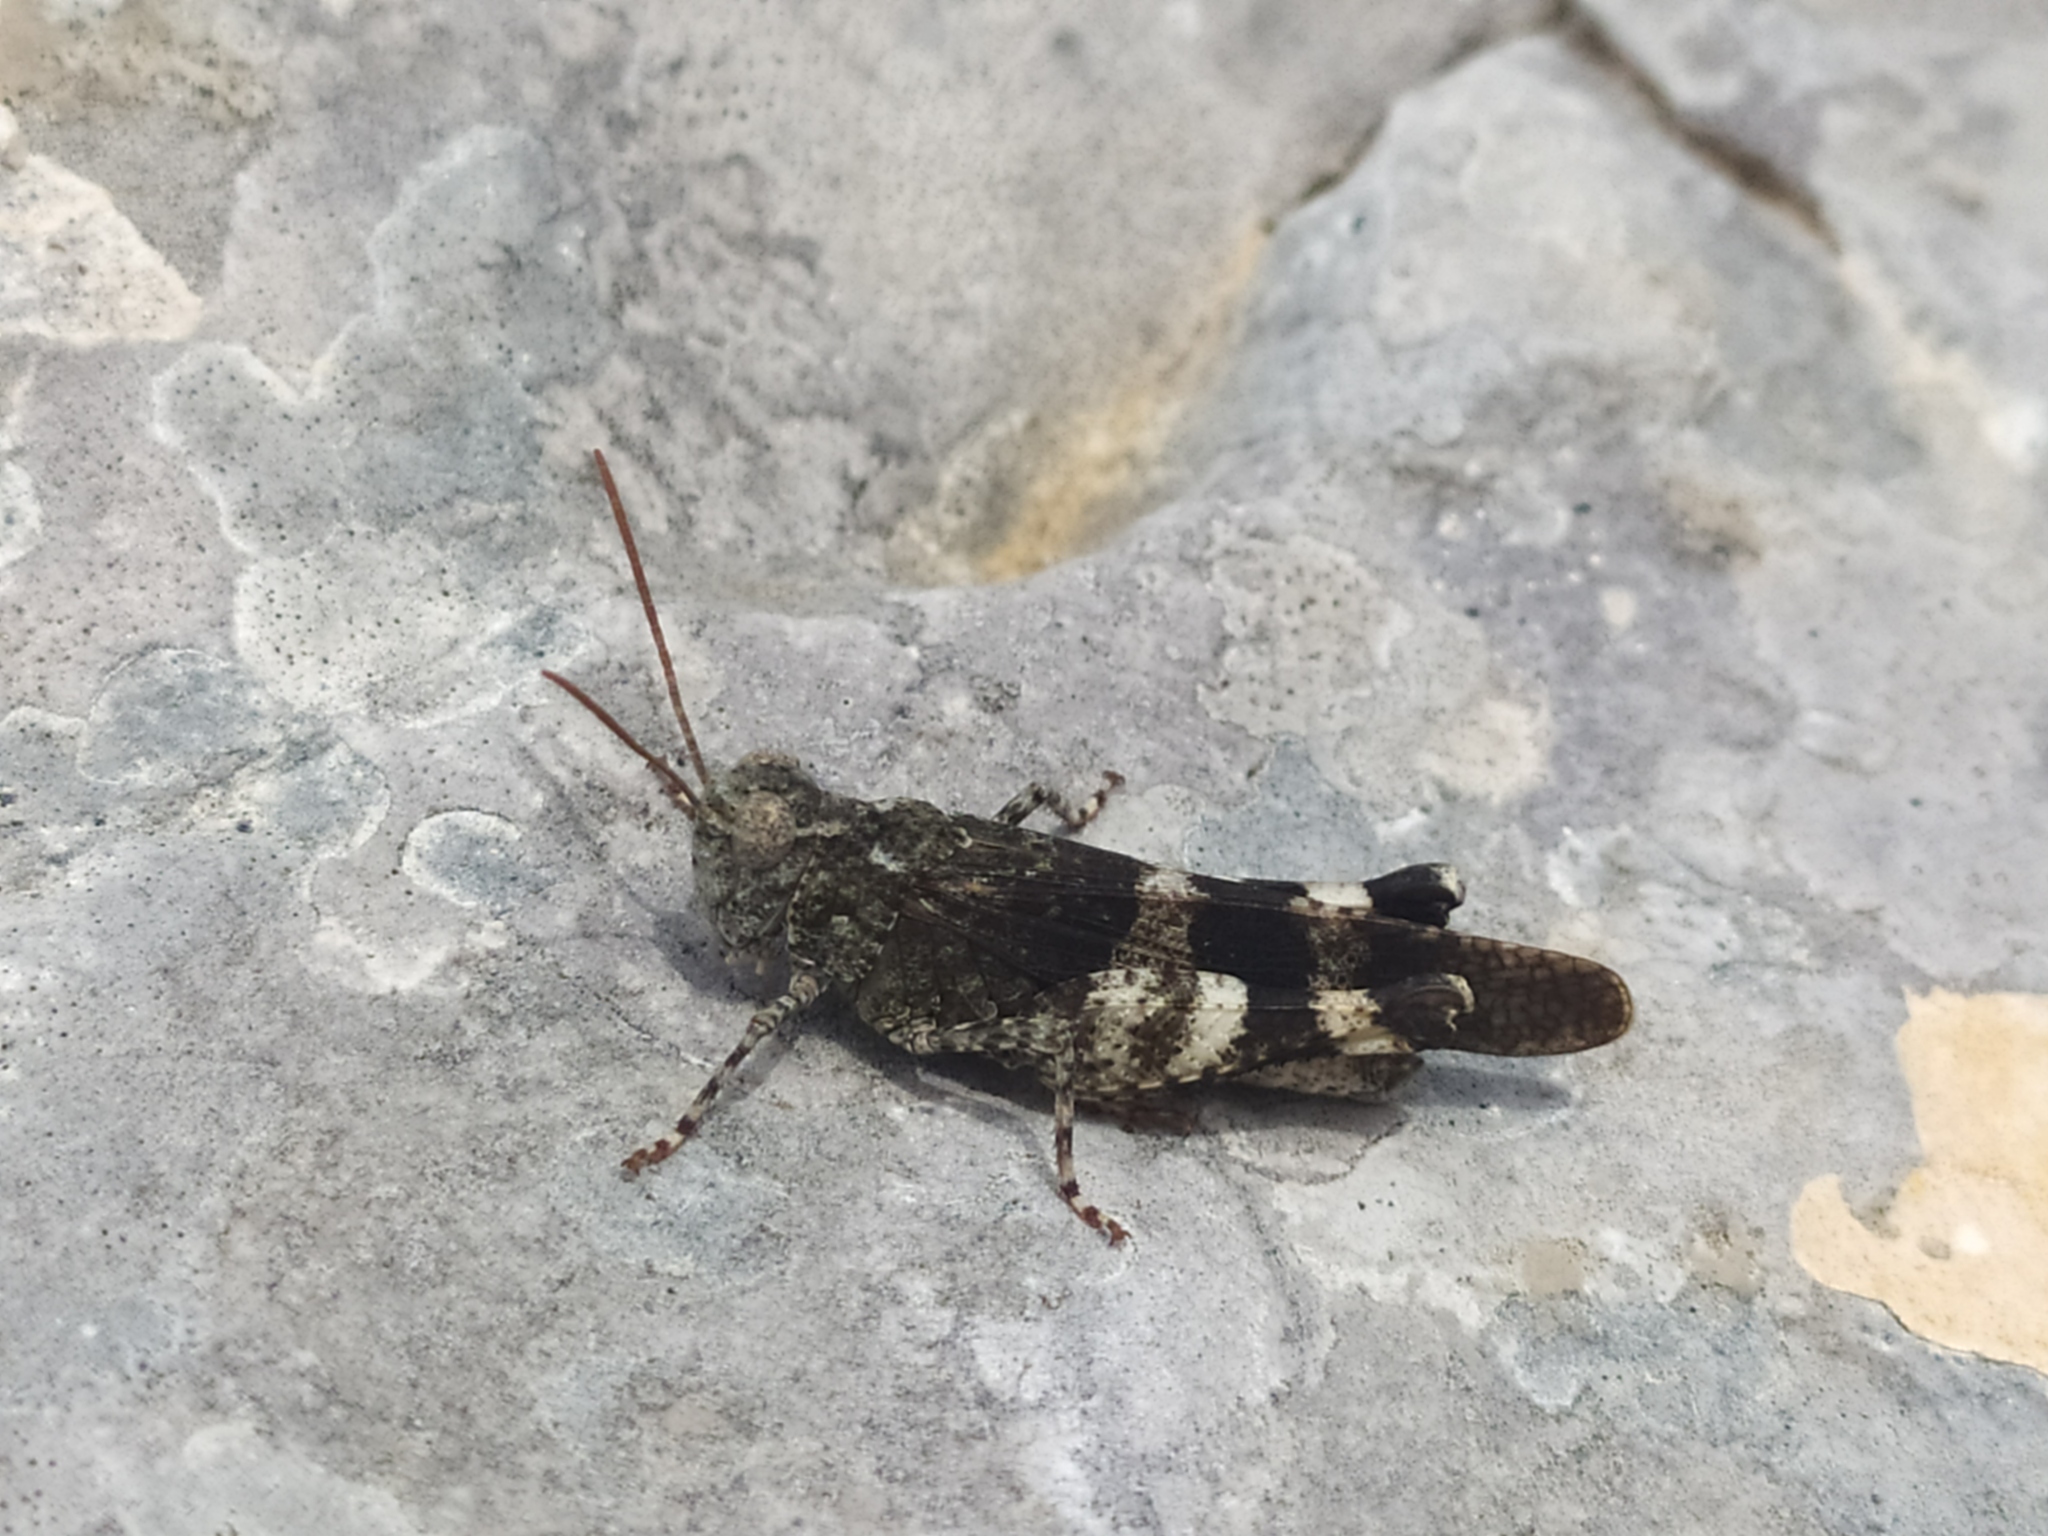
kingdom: Animalia
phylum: Arthropoda
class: Insecta
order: Orthoptera
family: Acrididae
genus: Oedipoda
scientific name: Oedipoda germanica
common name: Red band-winged grasshopper
